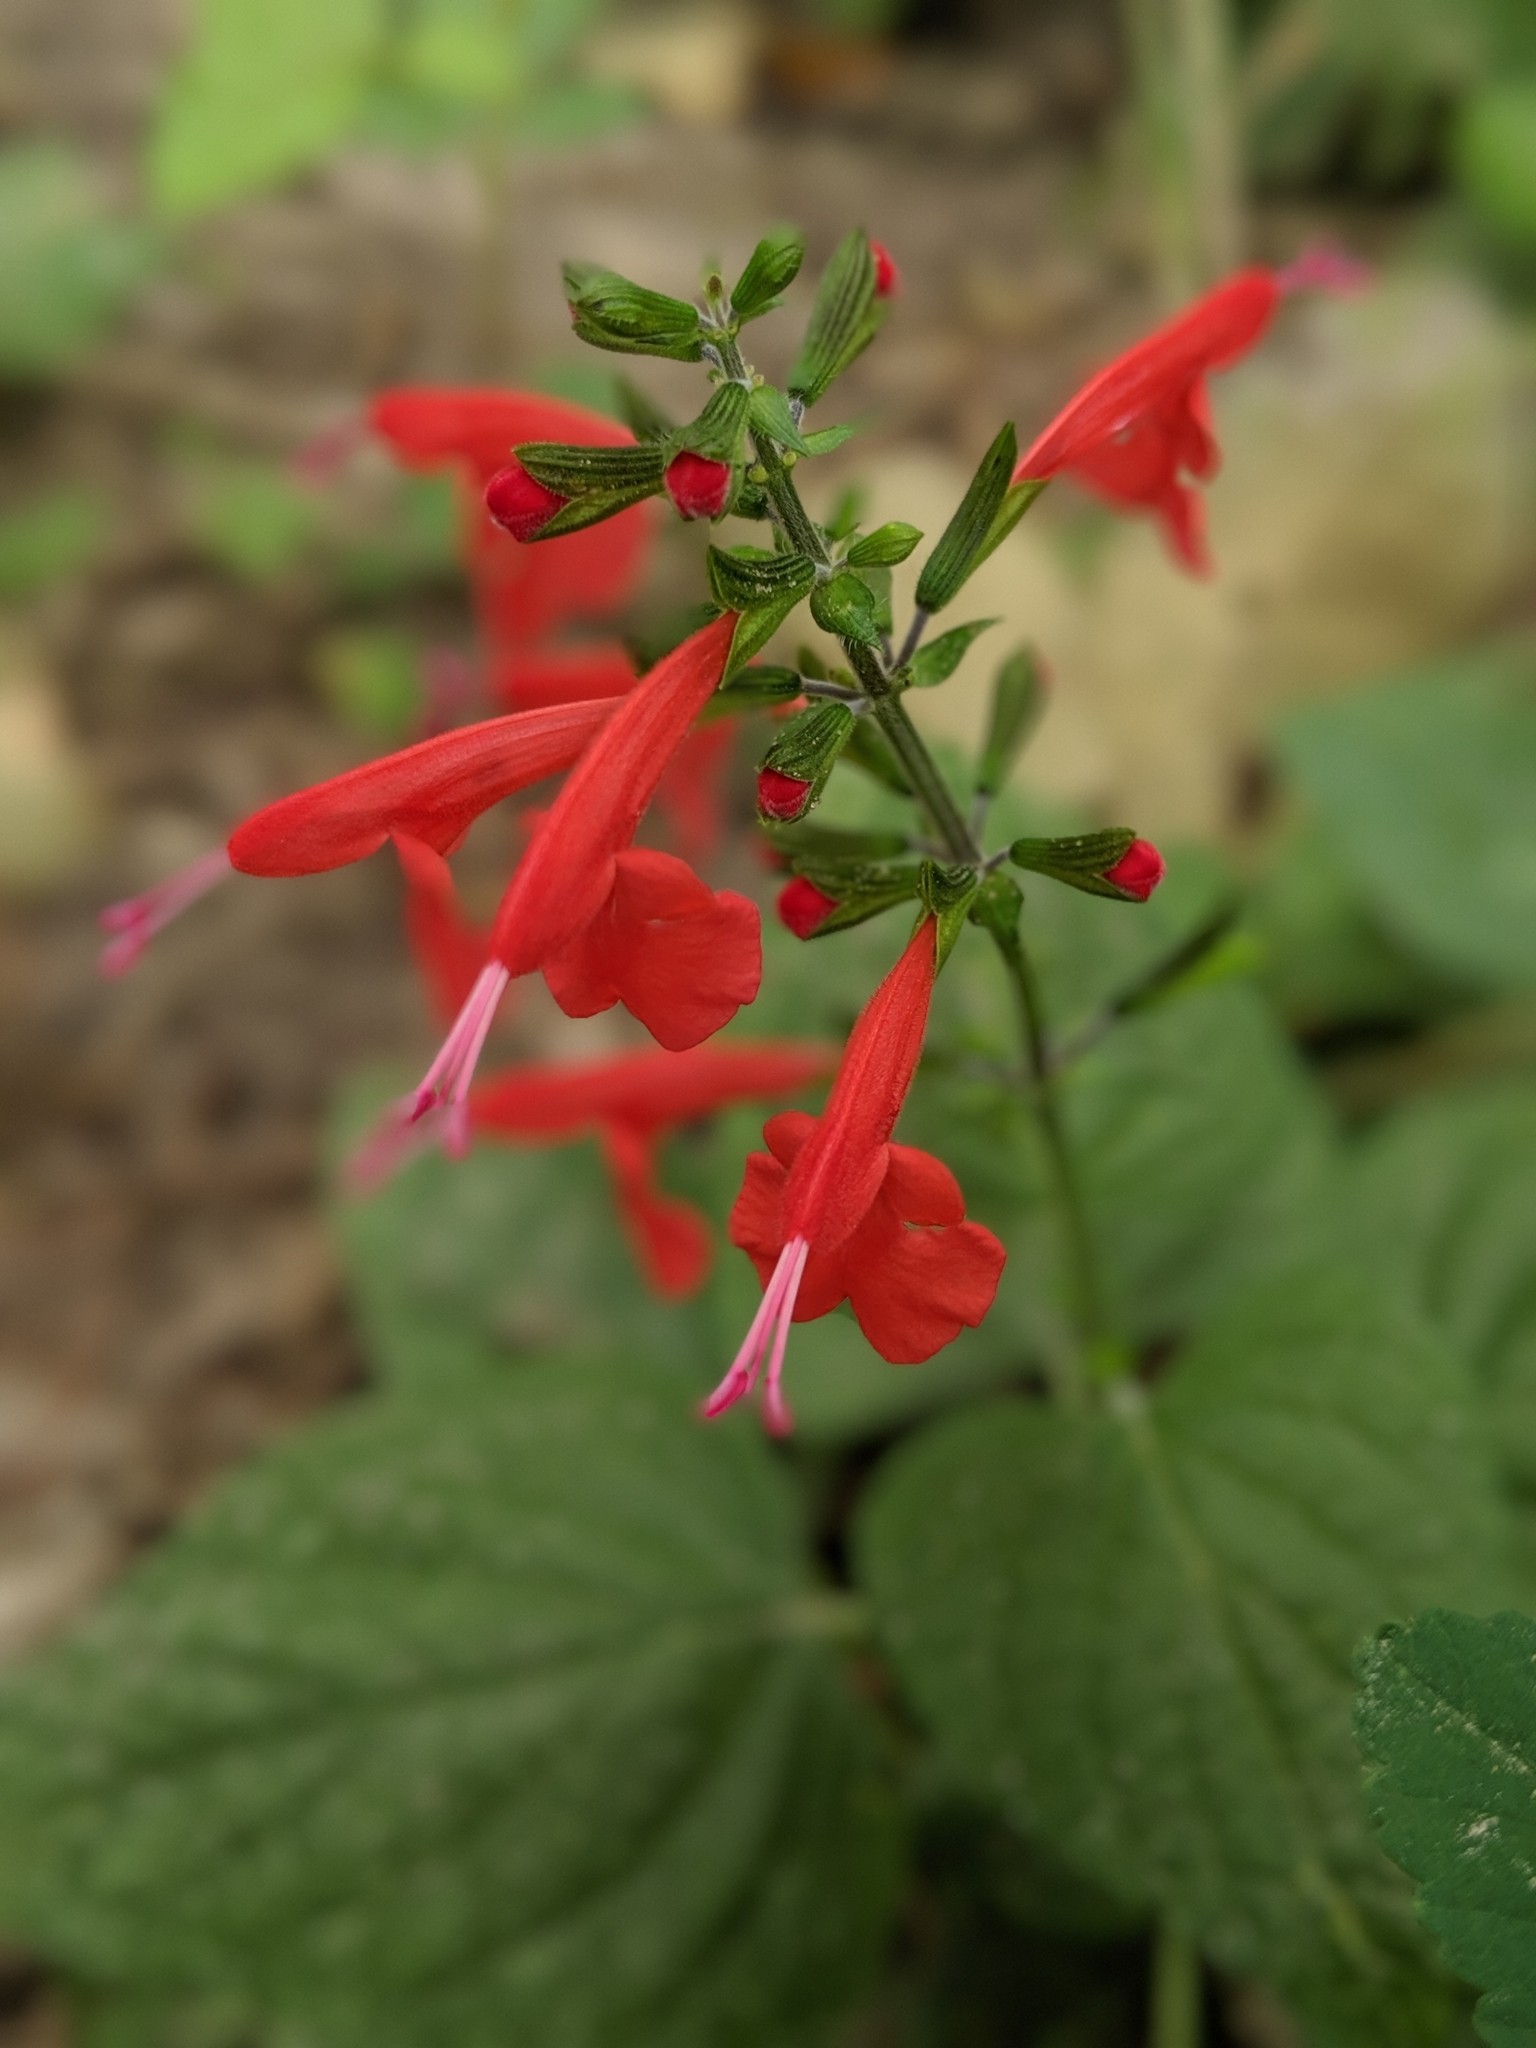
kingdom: Plantae
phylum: Tracheophyta
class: Magnoliopsida
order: Lamiales
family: Lamiaceae
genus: Salvia
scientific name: Salvia coccinea
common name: Blood sage
